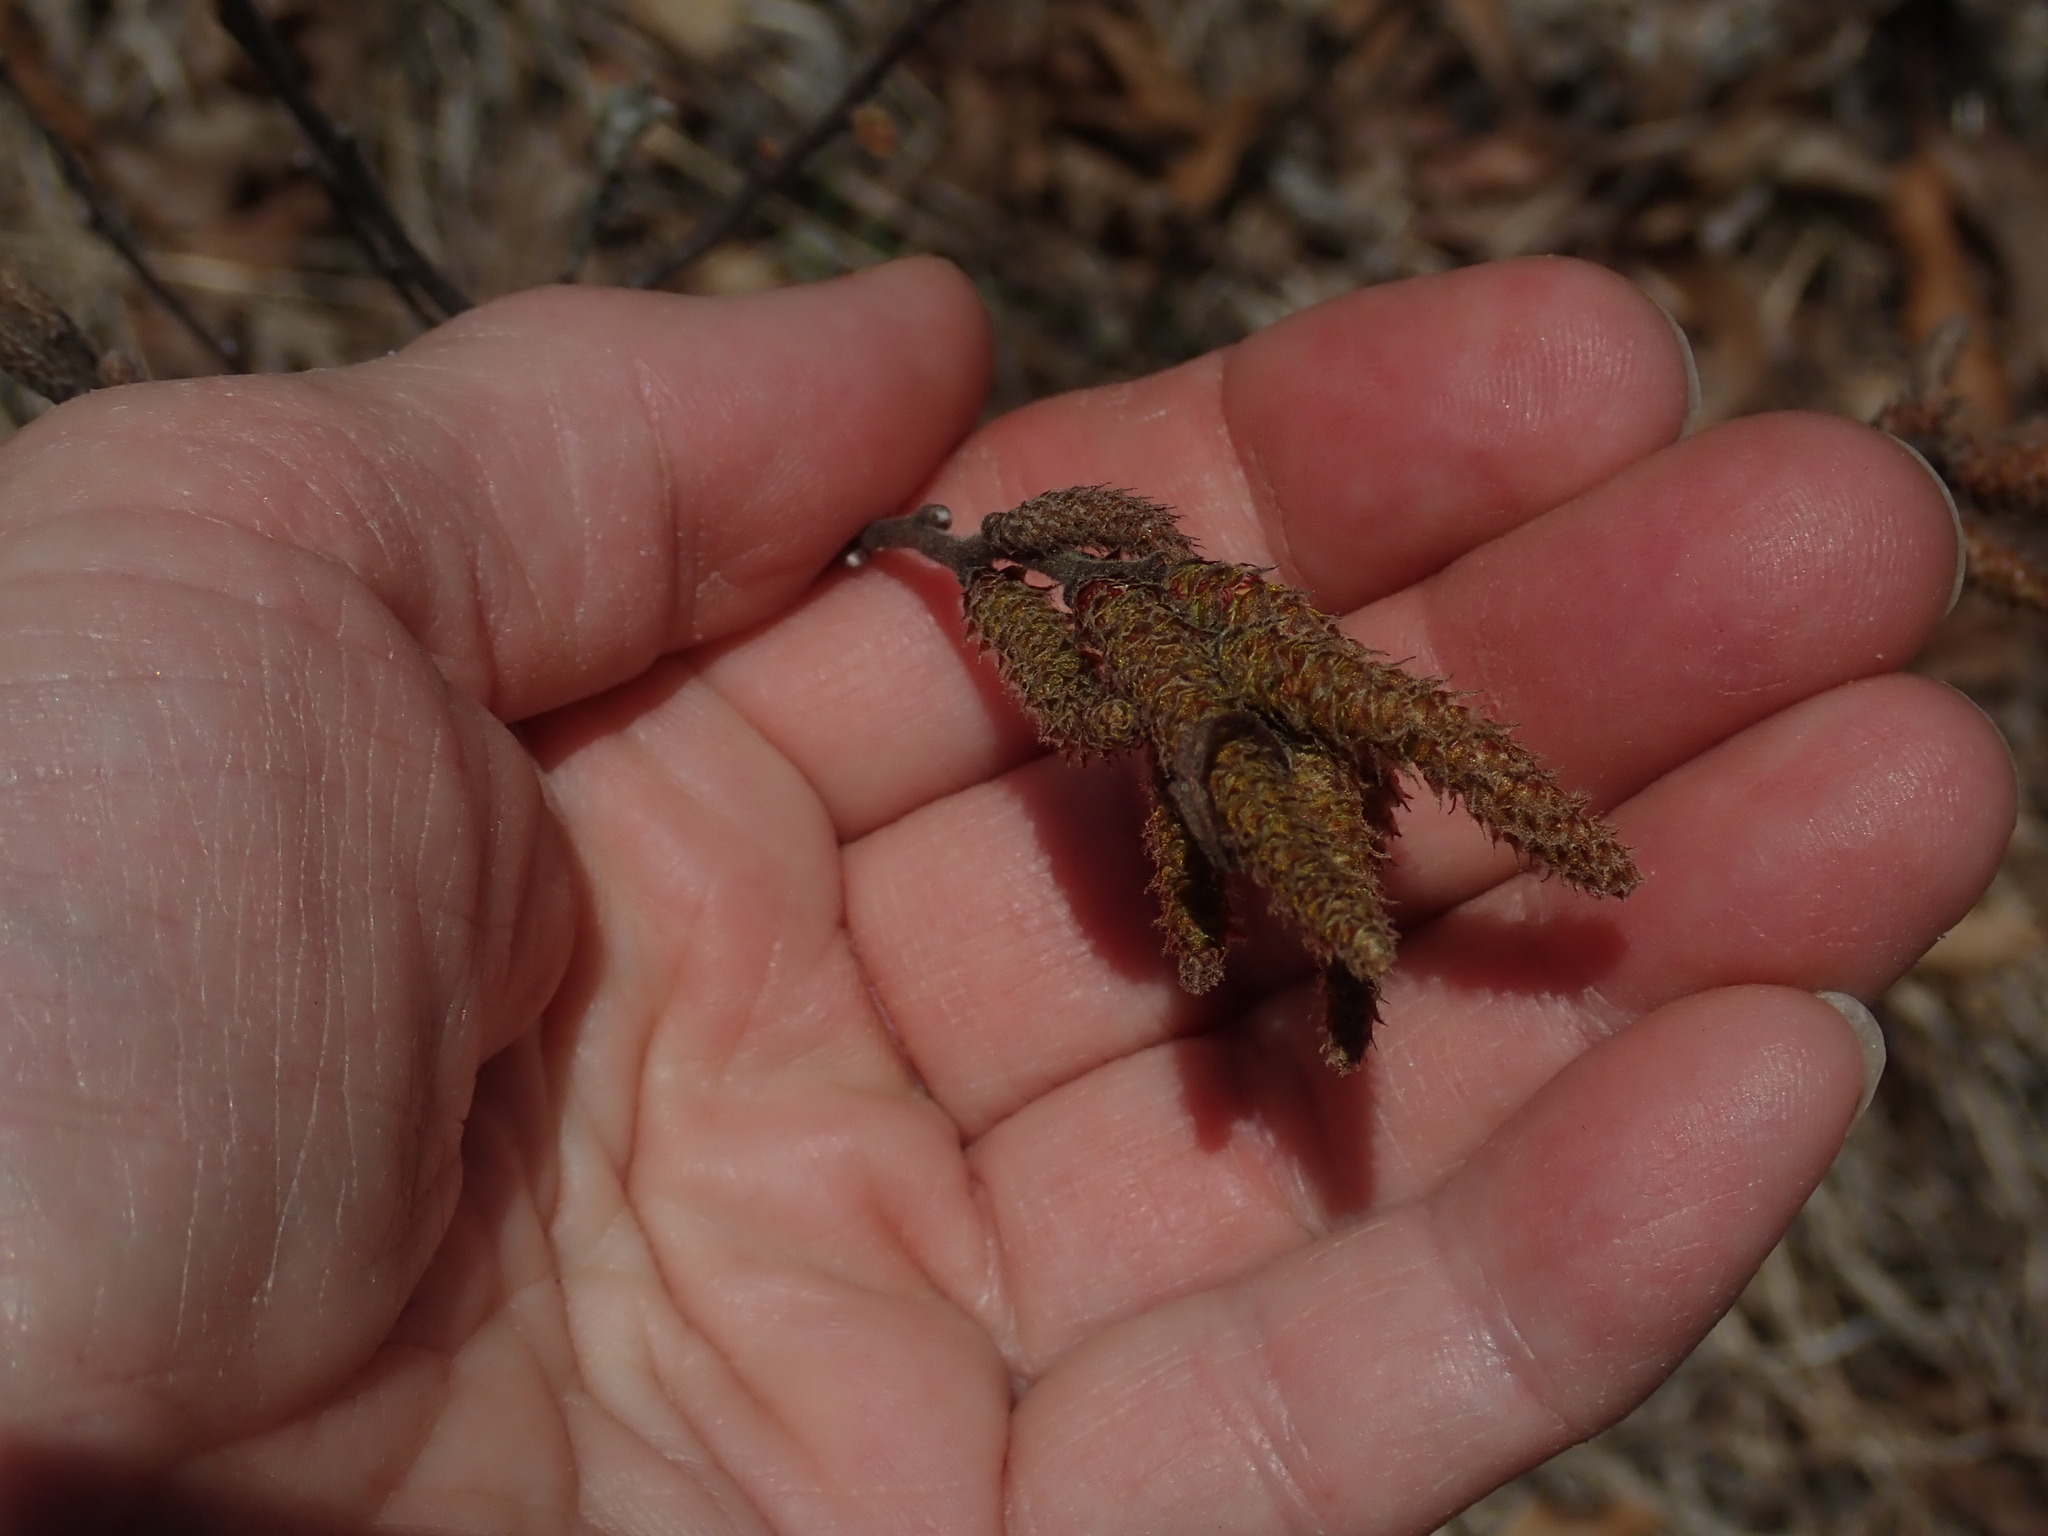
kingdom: Plantae
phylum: Tracheophyta
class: Magnoliopsida
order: Fagales
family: Myricaceae
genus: Comptonia
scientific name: Comptonia peregrina
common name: Sweet-fern
